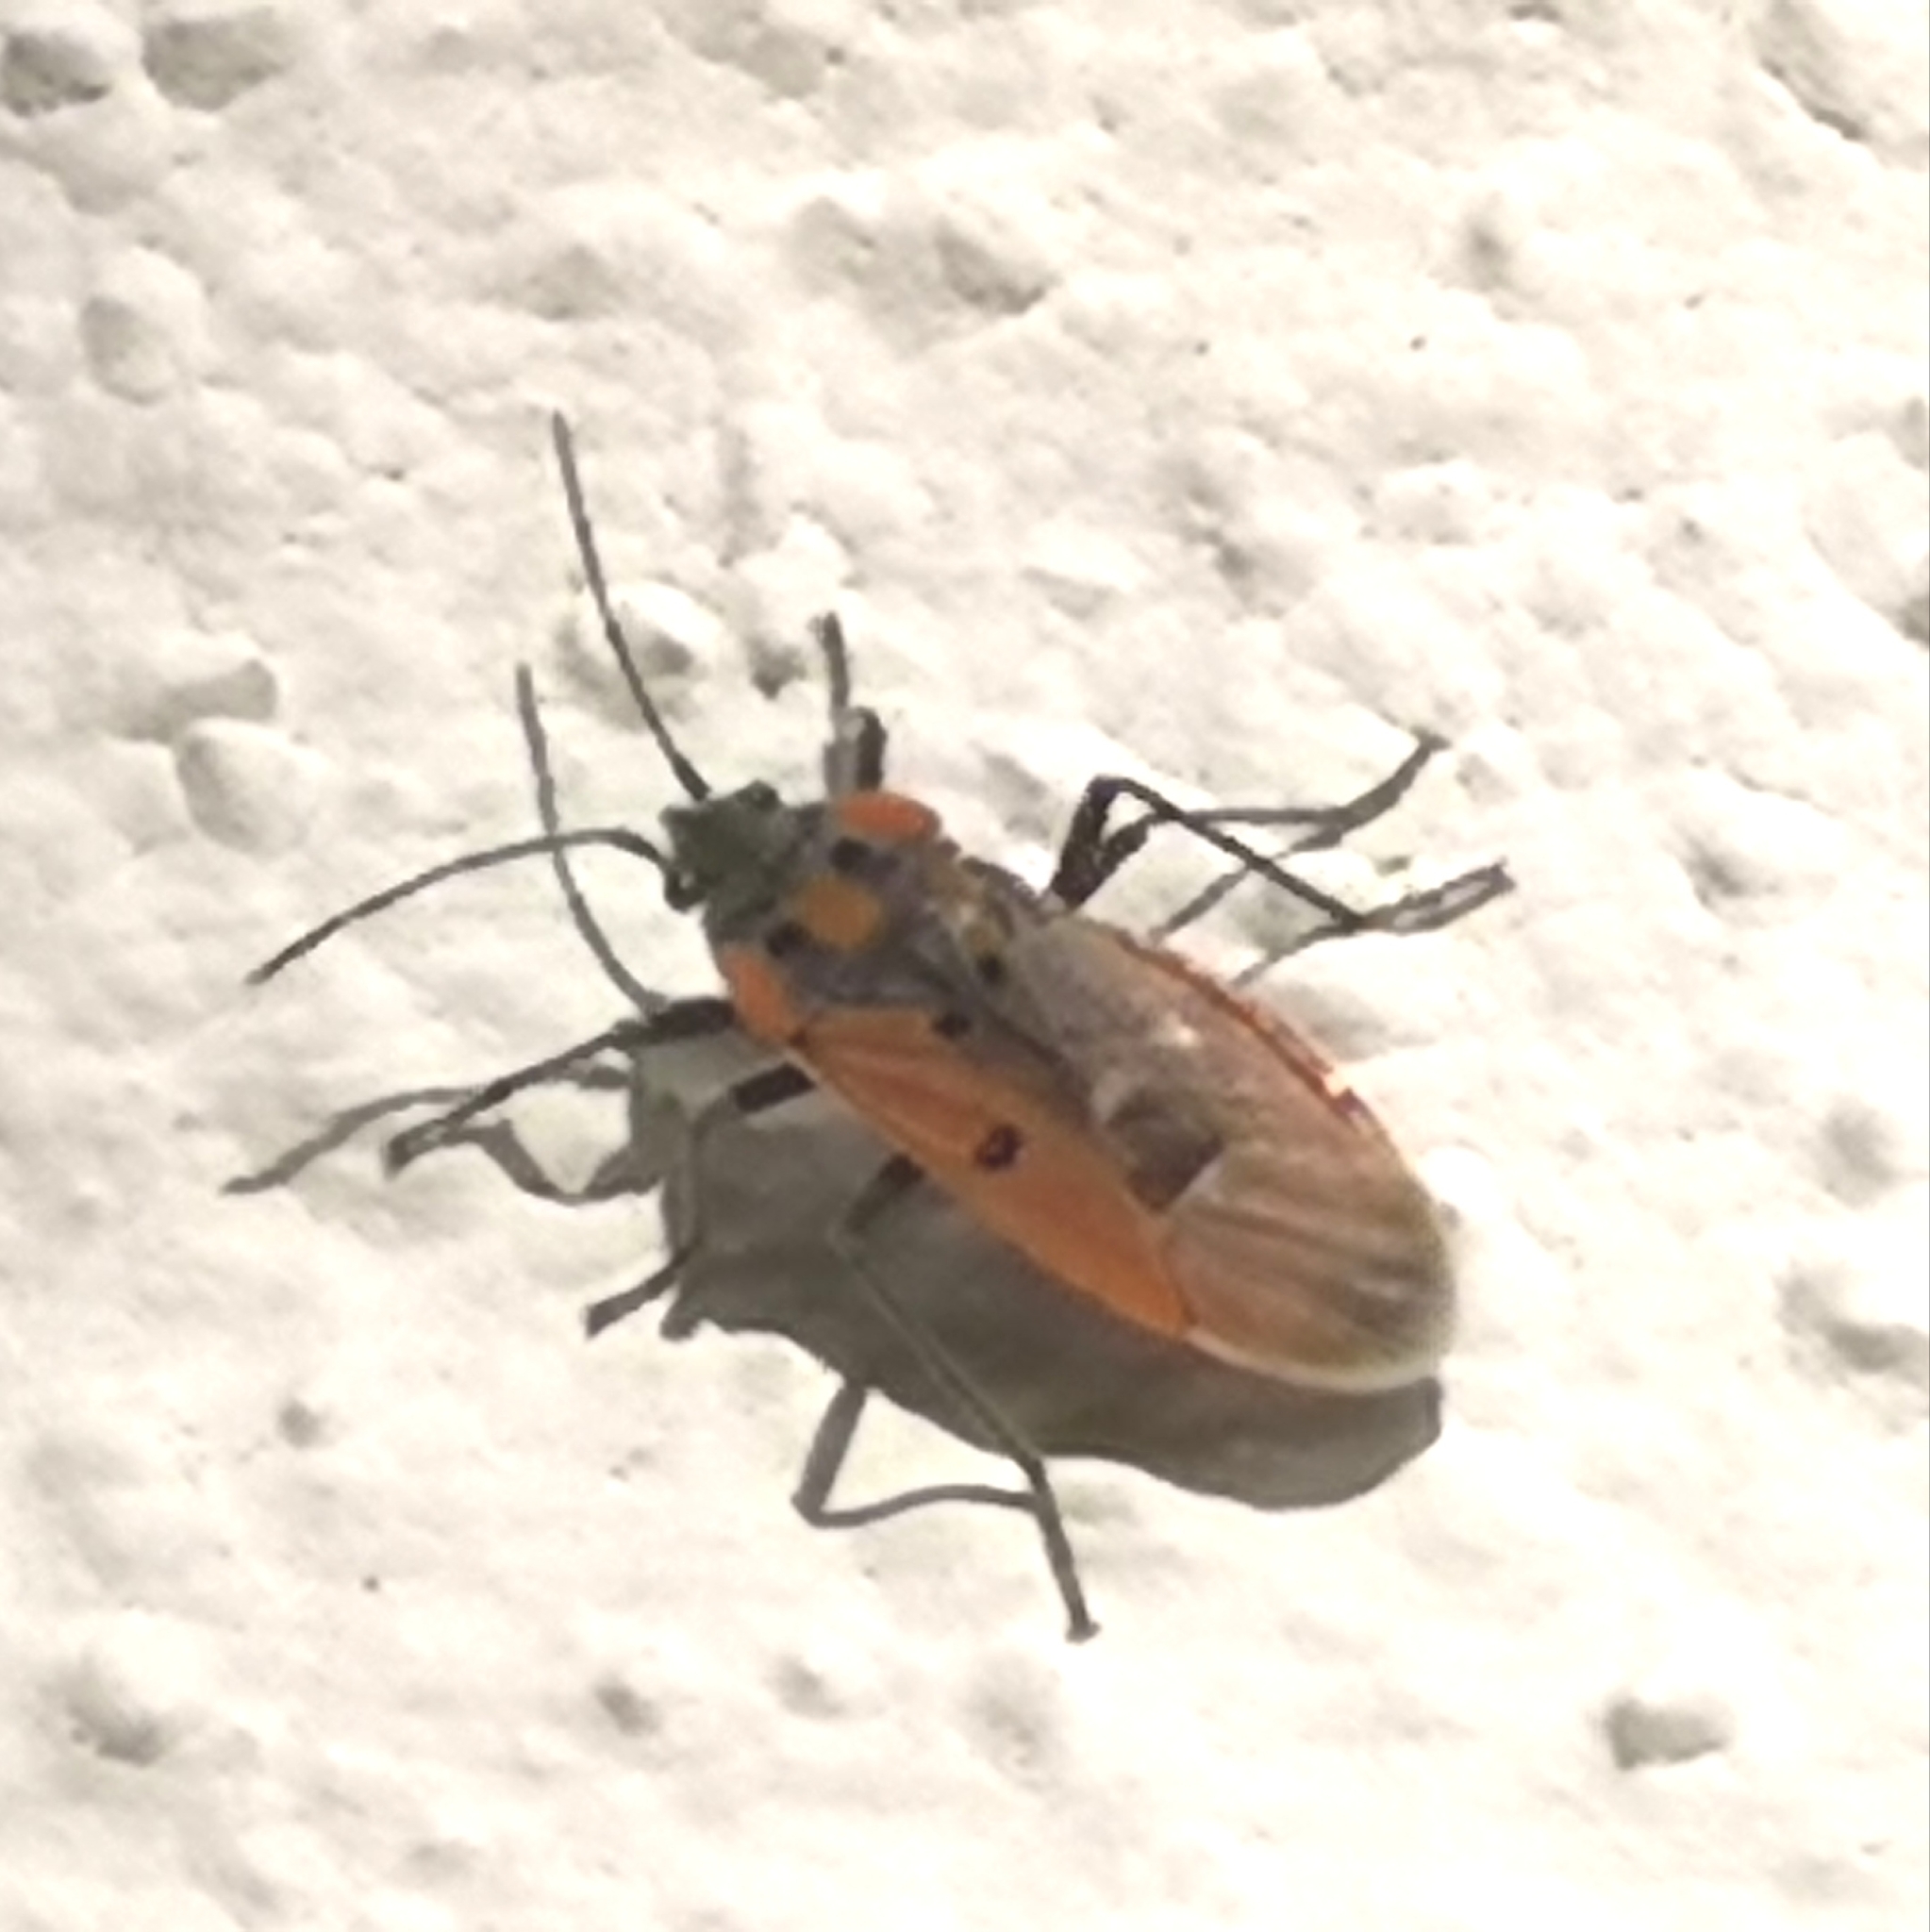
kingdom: Animalia
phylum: Arthropoda
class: Insecta
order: Hemiptera
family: Lygaeidae
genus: Lygaeus
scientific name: Lygaeus creticus
